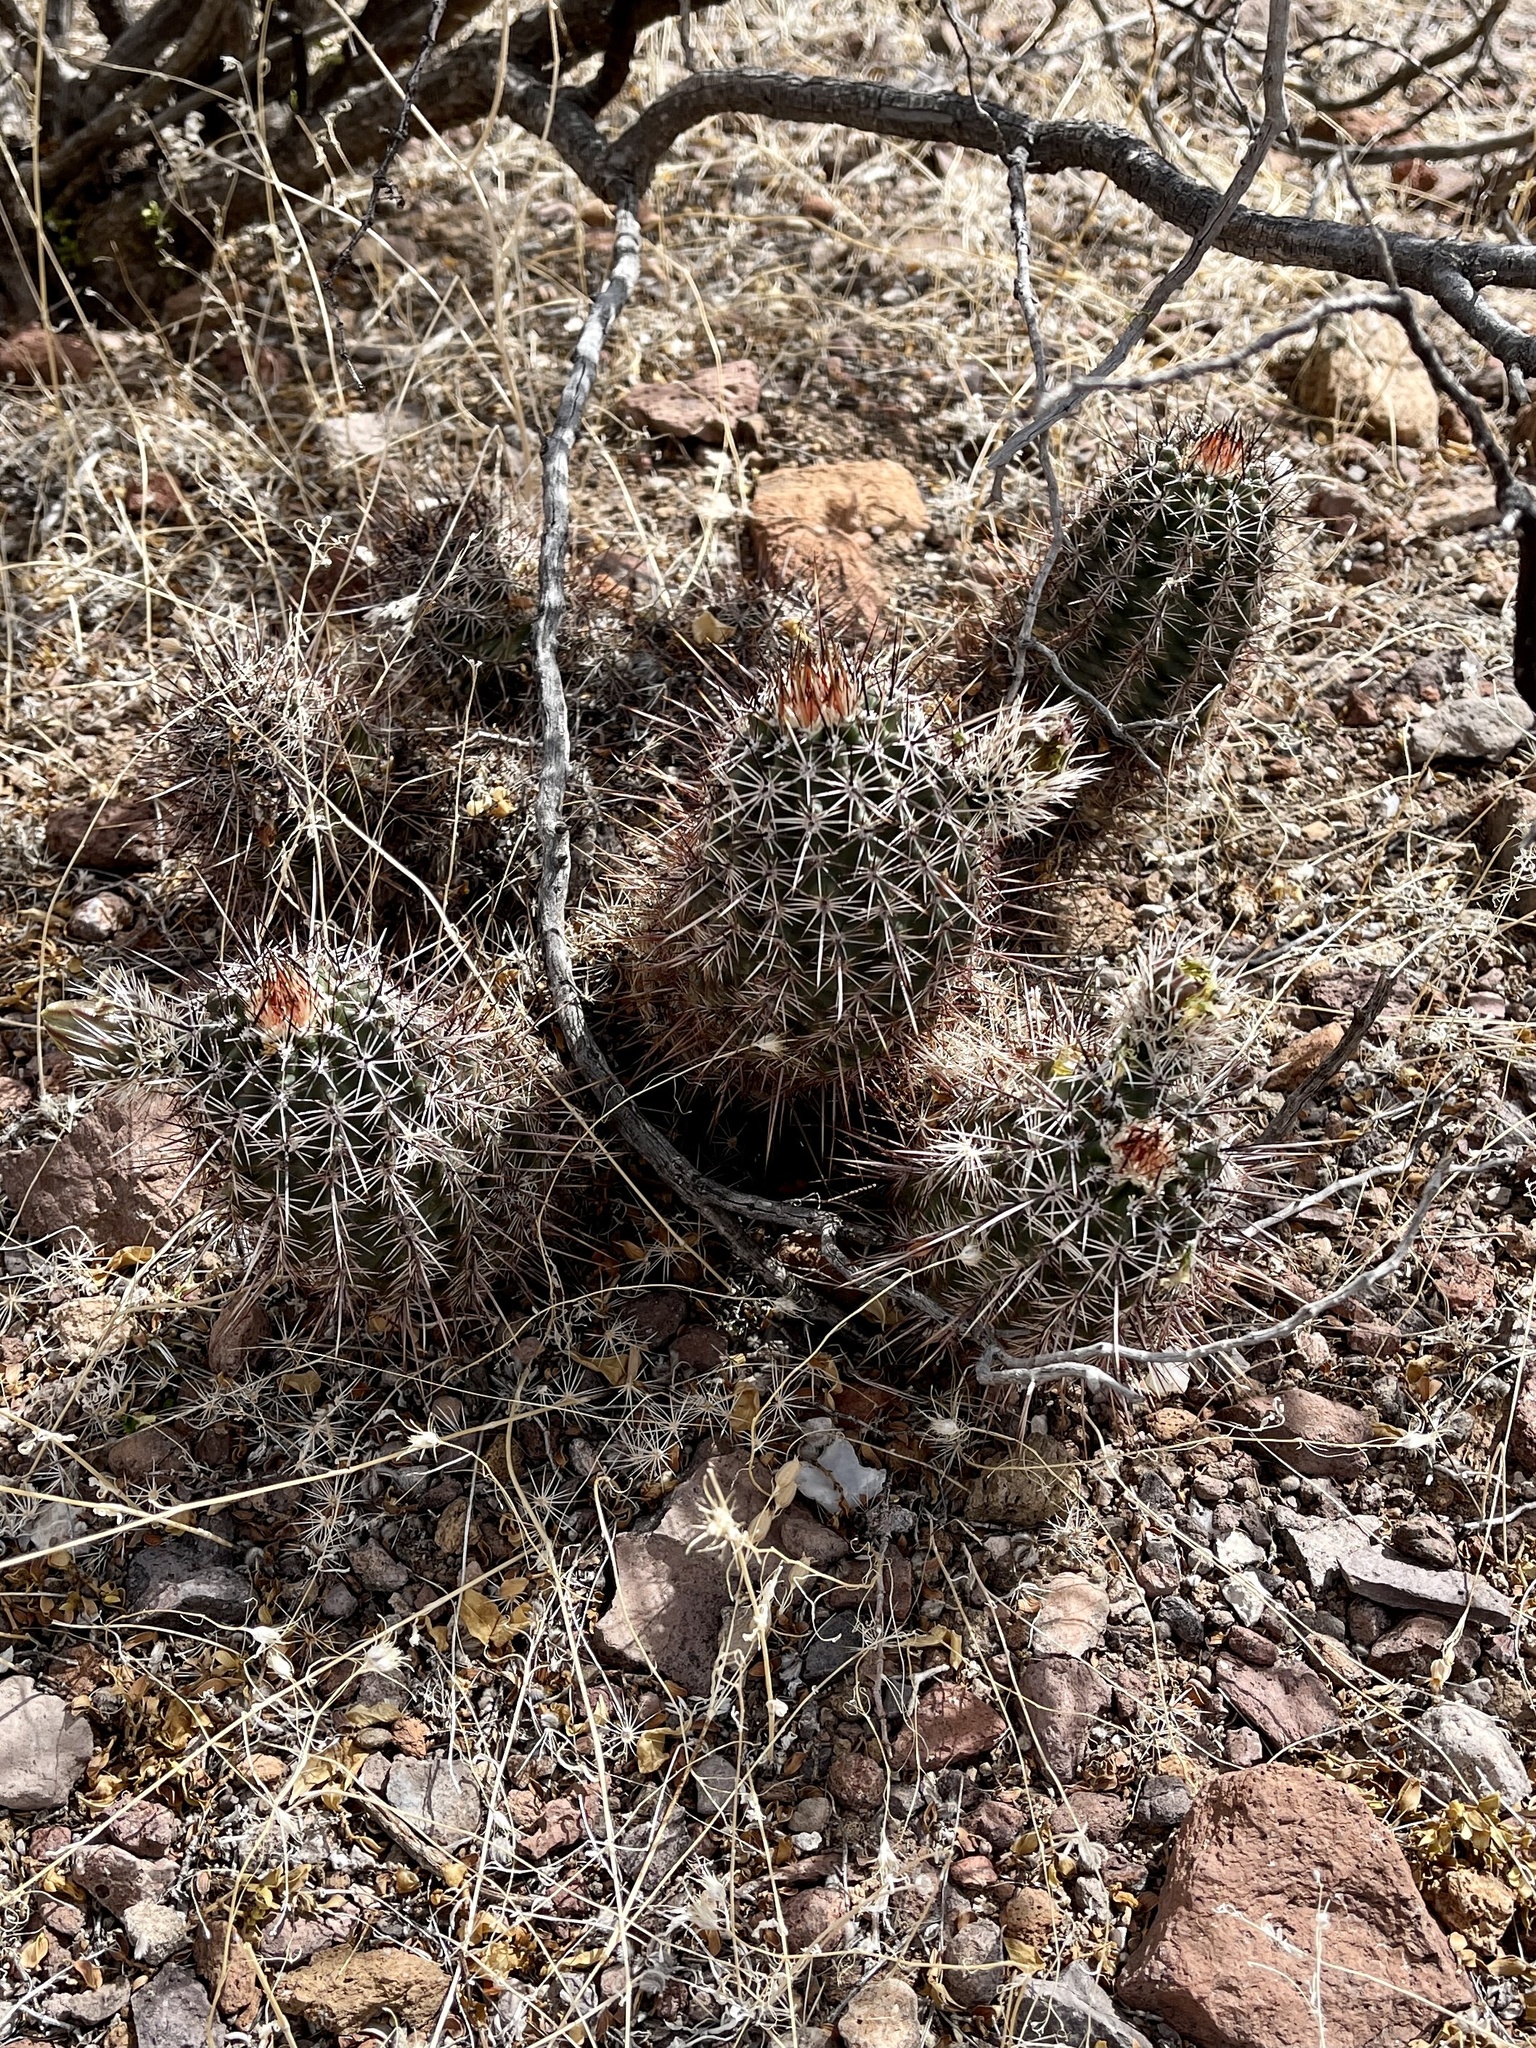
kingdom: Plantae
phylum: Tracheophyta
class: Magnoliopsida
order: Caryophyllales
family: Cactaceae
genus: Echinocereus
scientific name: Echinocereus fasciculatus
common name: Bundle hedgehog
